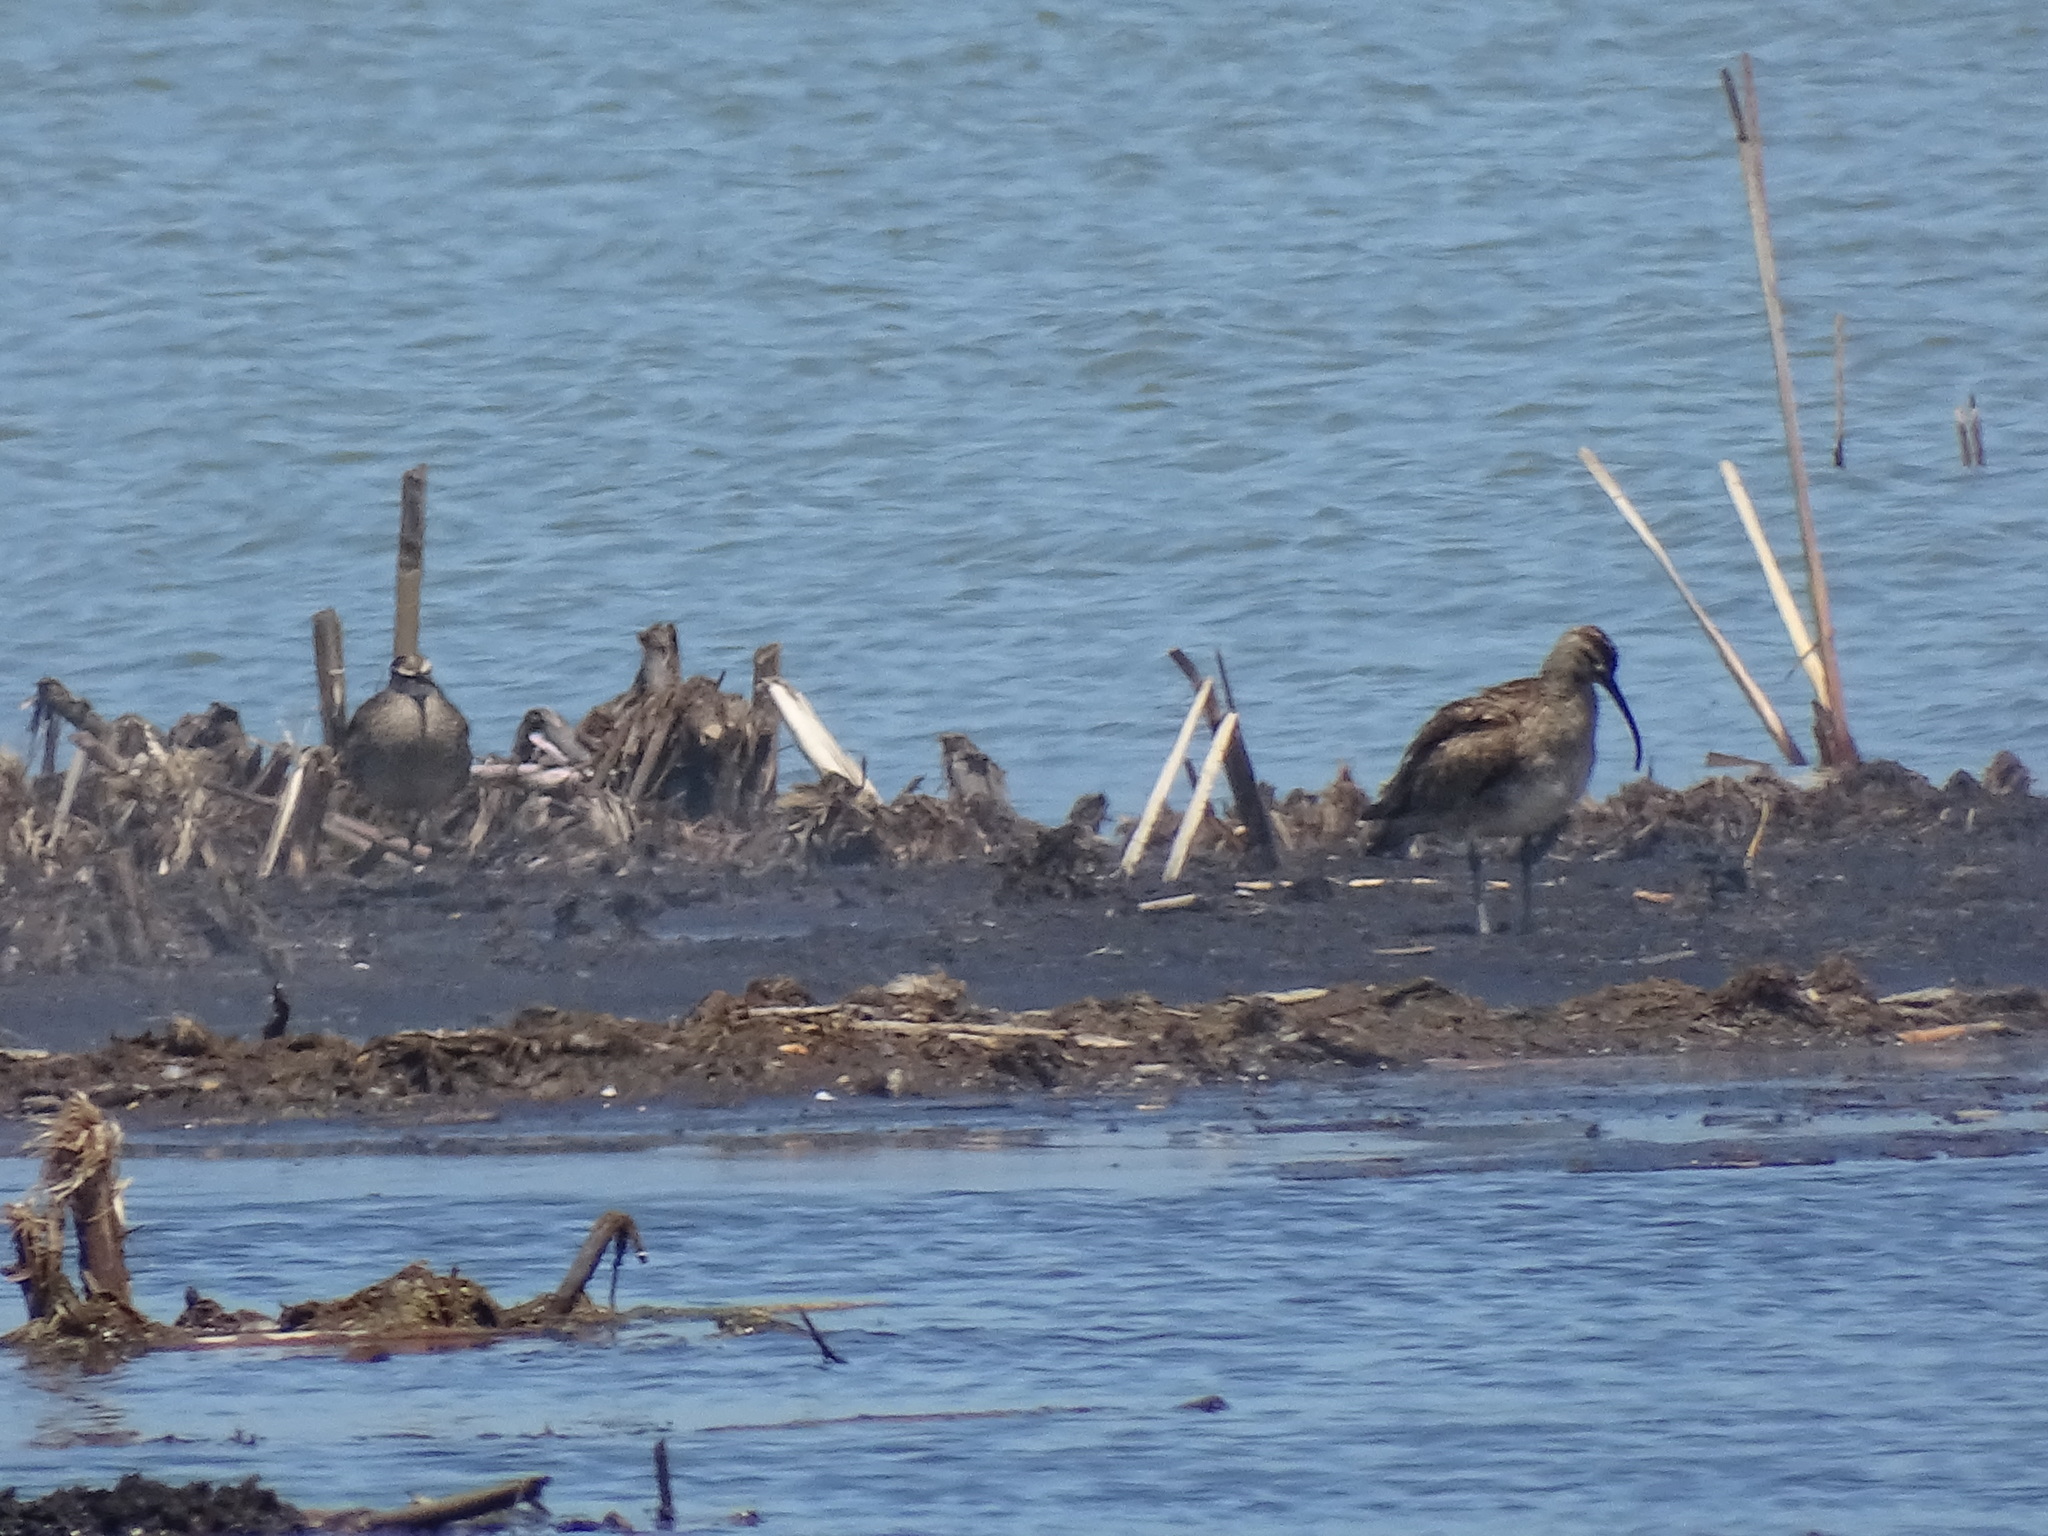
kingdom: Animalia
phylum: Chordata
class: Aves
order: Charadriiformes
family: Scolopacidae
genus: Numenius
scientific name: Numenius phaeopus
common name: Whimbrel
